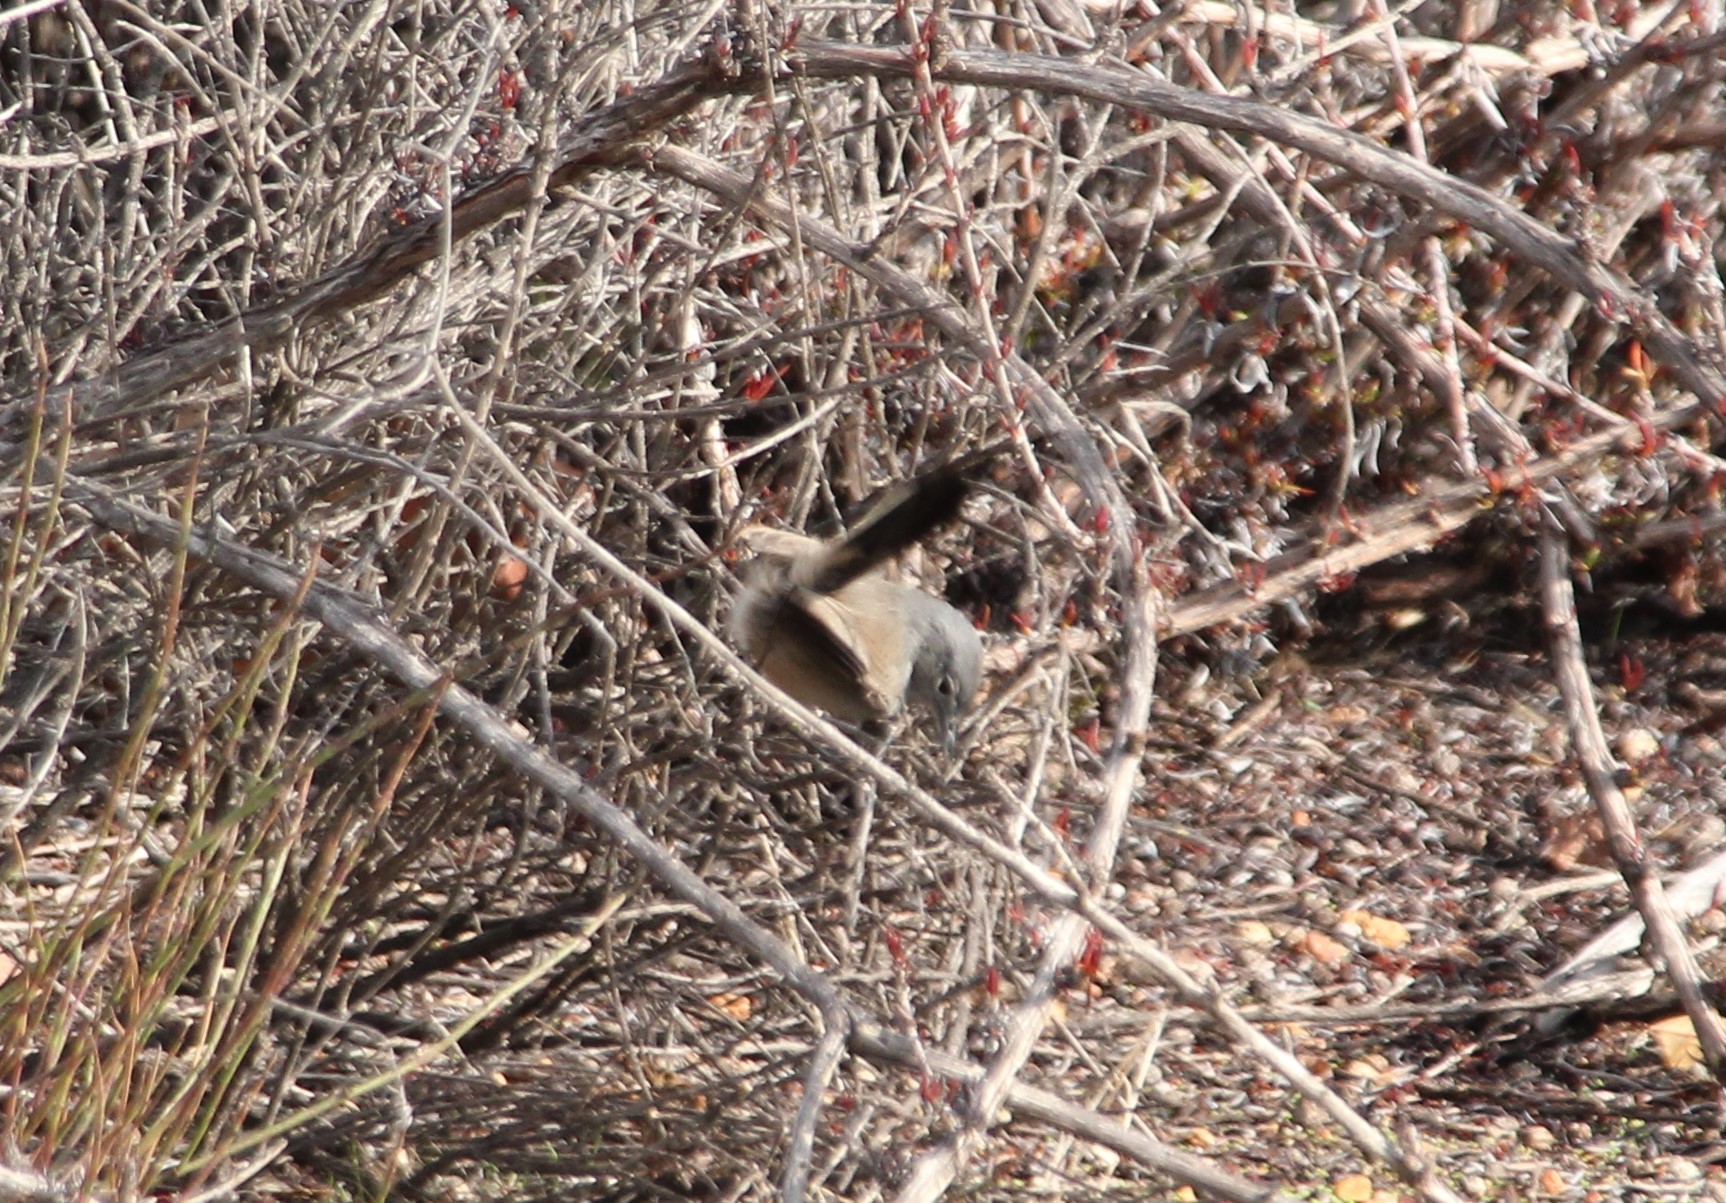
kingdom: Animalia
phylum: Chordata
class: Aves
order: Passeriformes
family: Polioptilidae
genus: Polioptila
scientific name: Polioptila californica
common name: California gnatcatcher
